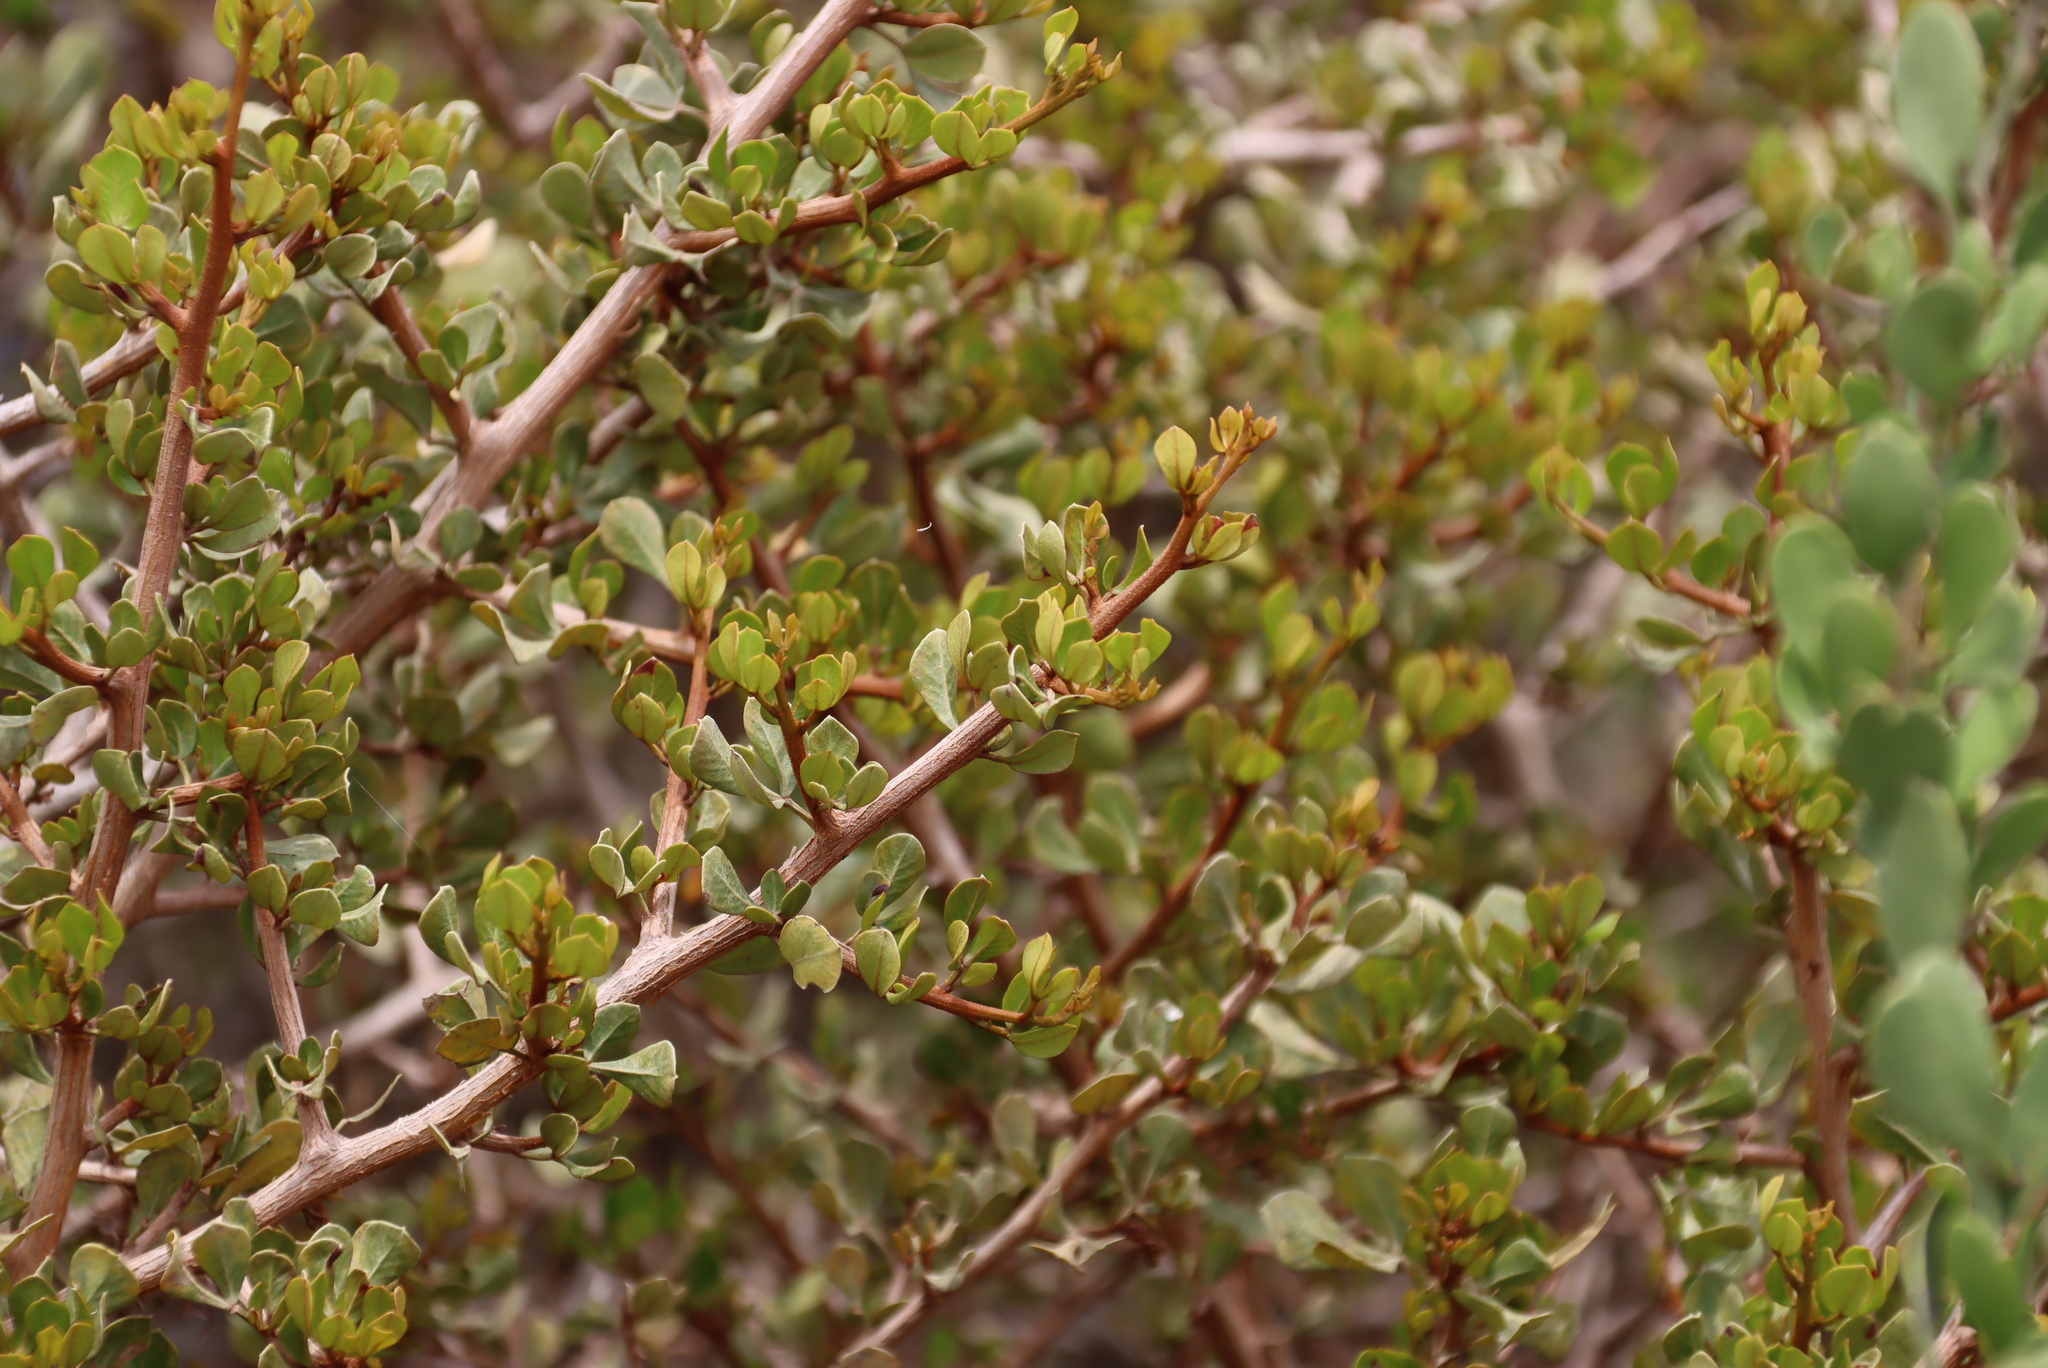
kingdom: Plantae
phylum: Tracheophyta
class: Magnoliopsida
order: Sapindales
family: Anacardiaceae
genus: Searsia
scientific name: Searsia glauca
